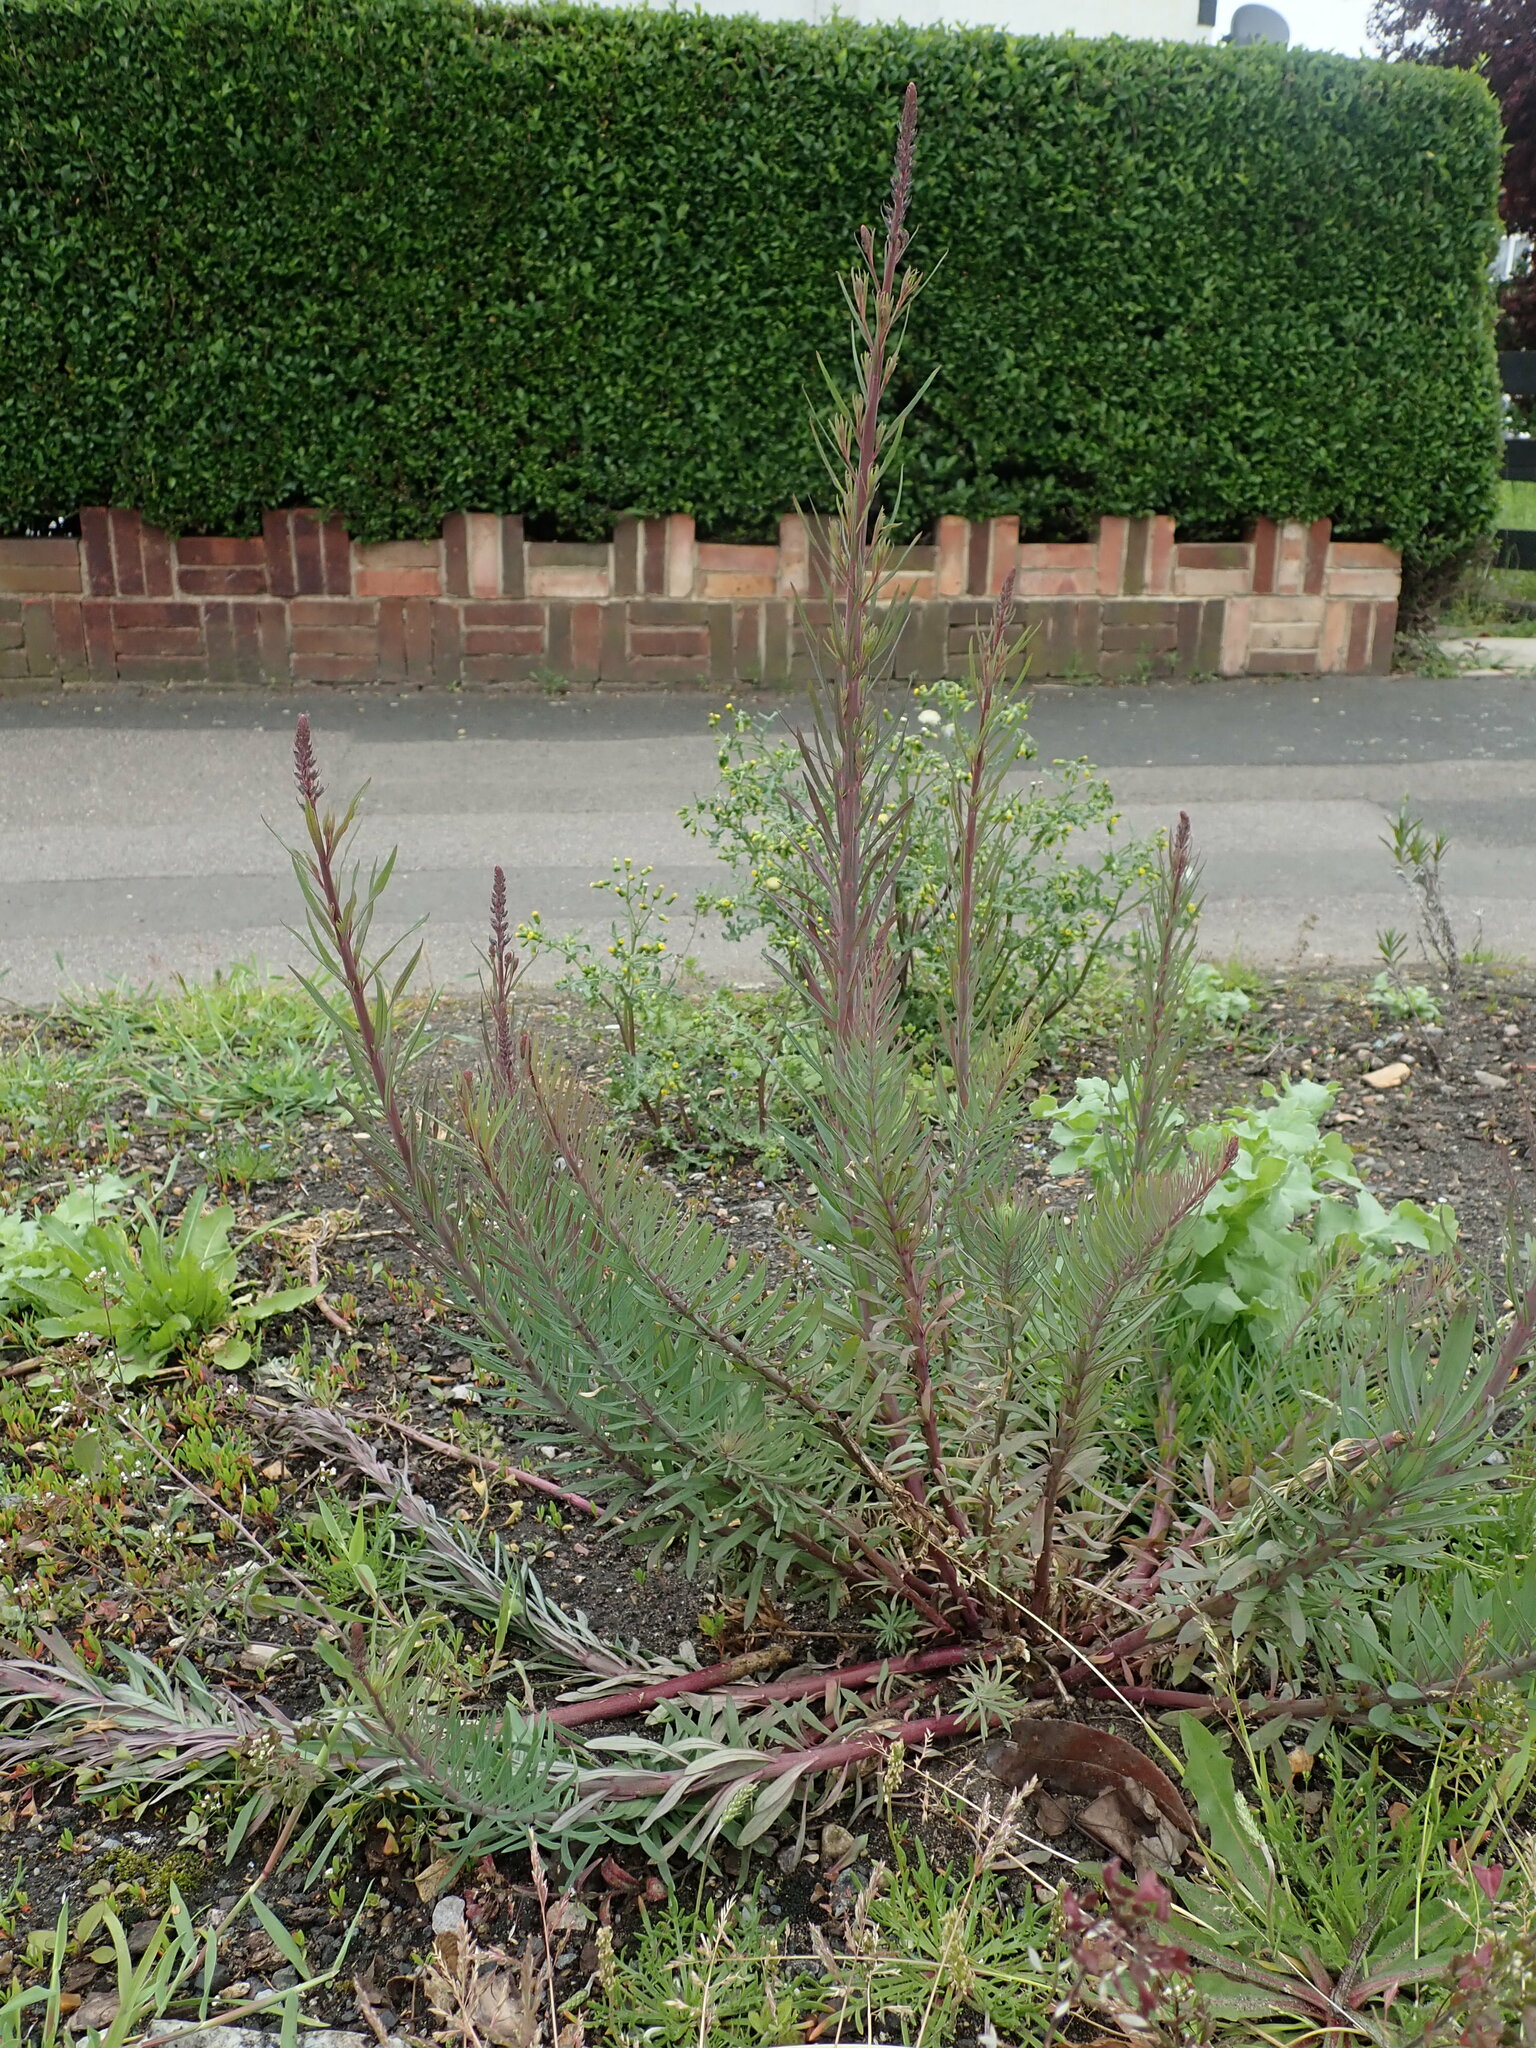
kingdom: Plantae
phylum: Tracheophyta
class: Magnoliopsida
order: Lamiales
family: Plantaginaceae
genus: Linaria
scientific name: Linaria purpurea
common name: Purple toadflax
